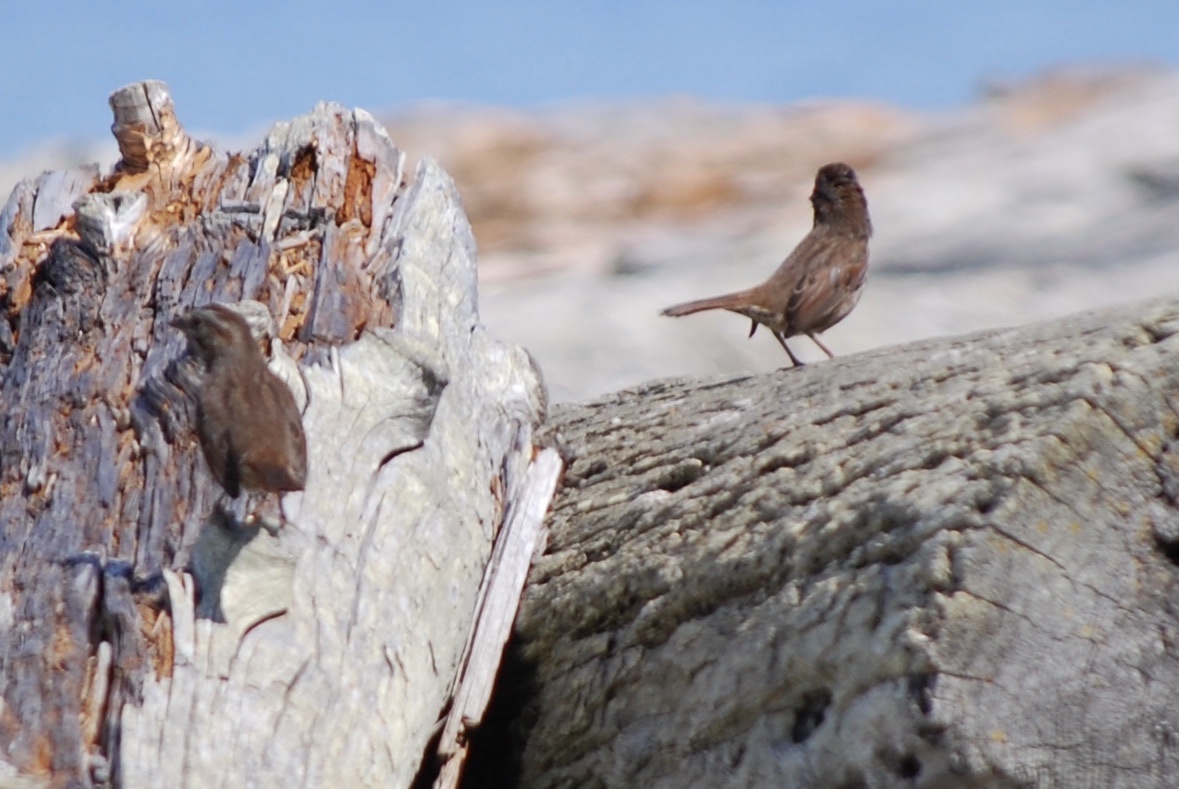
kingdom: Animalia
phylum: Chordata
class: Aves
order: Passeriformes
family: Passerellidae
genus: Melospiza
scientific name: Melospiza melodia
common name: Song sparrow
